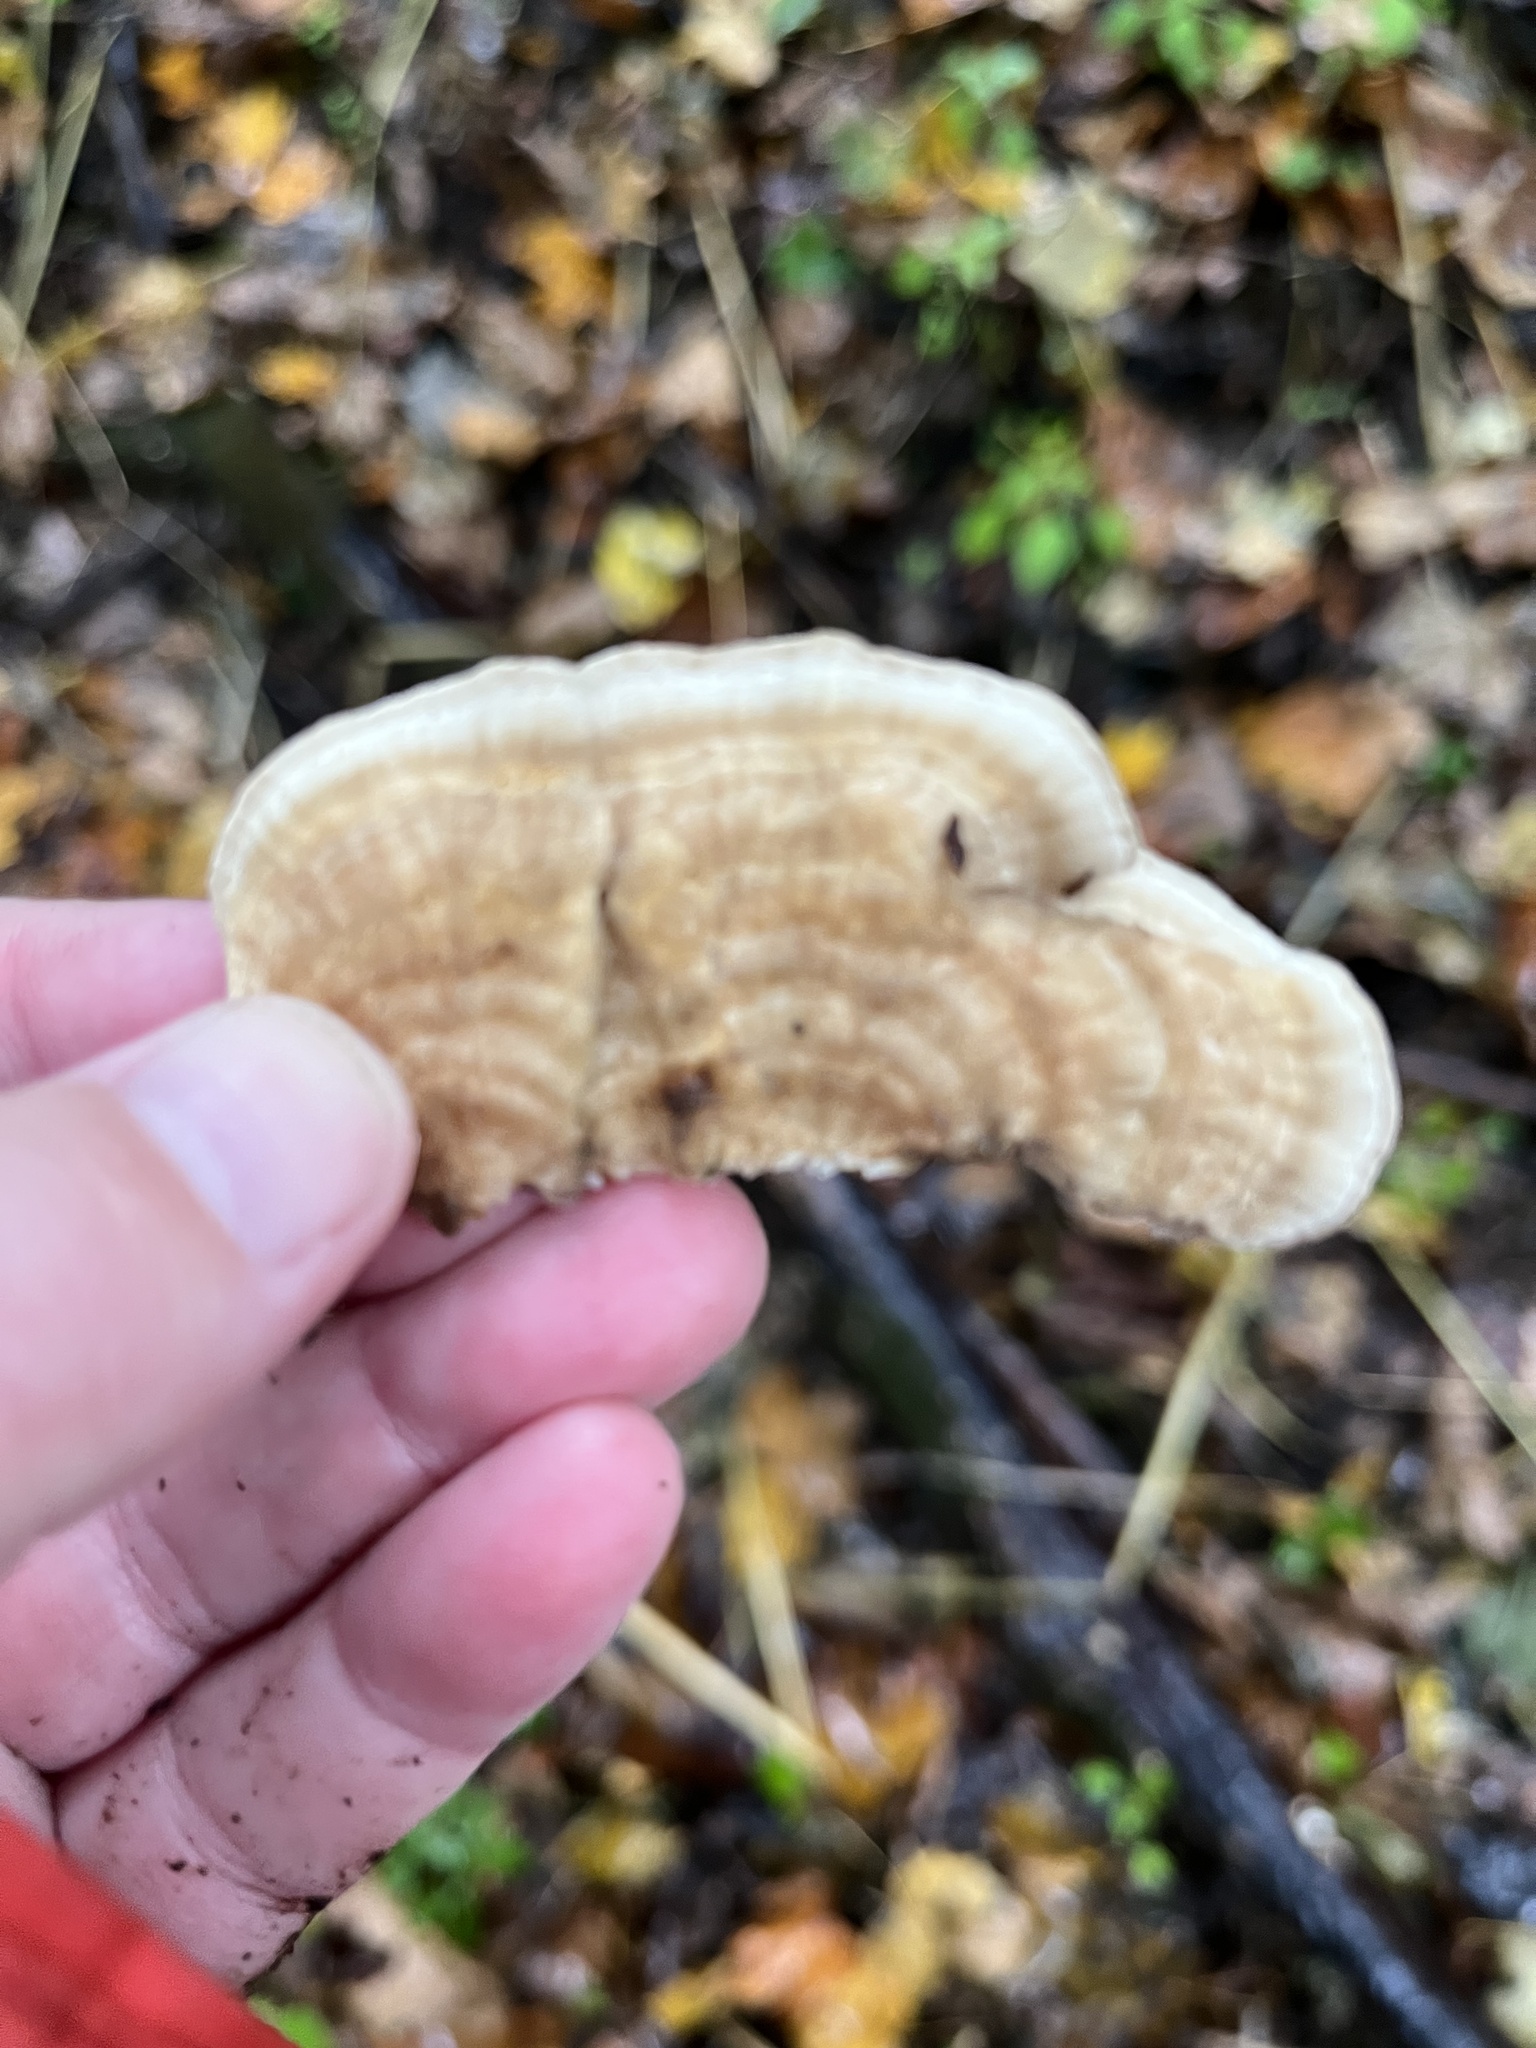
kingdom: Fungi
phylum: Basidiomycota
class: Agaricomycetes
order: Polyporales
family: Polyporaceae
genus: Lenzites
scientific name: Lenzites betulinus
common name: Birch mazegill
